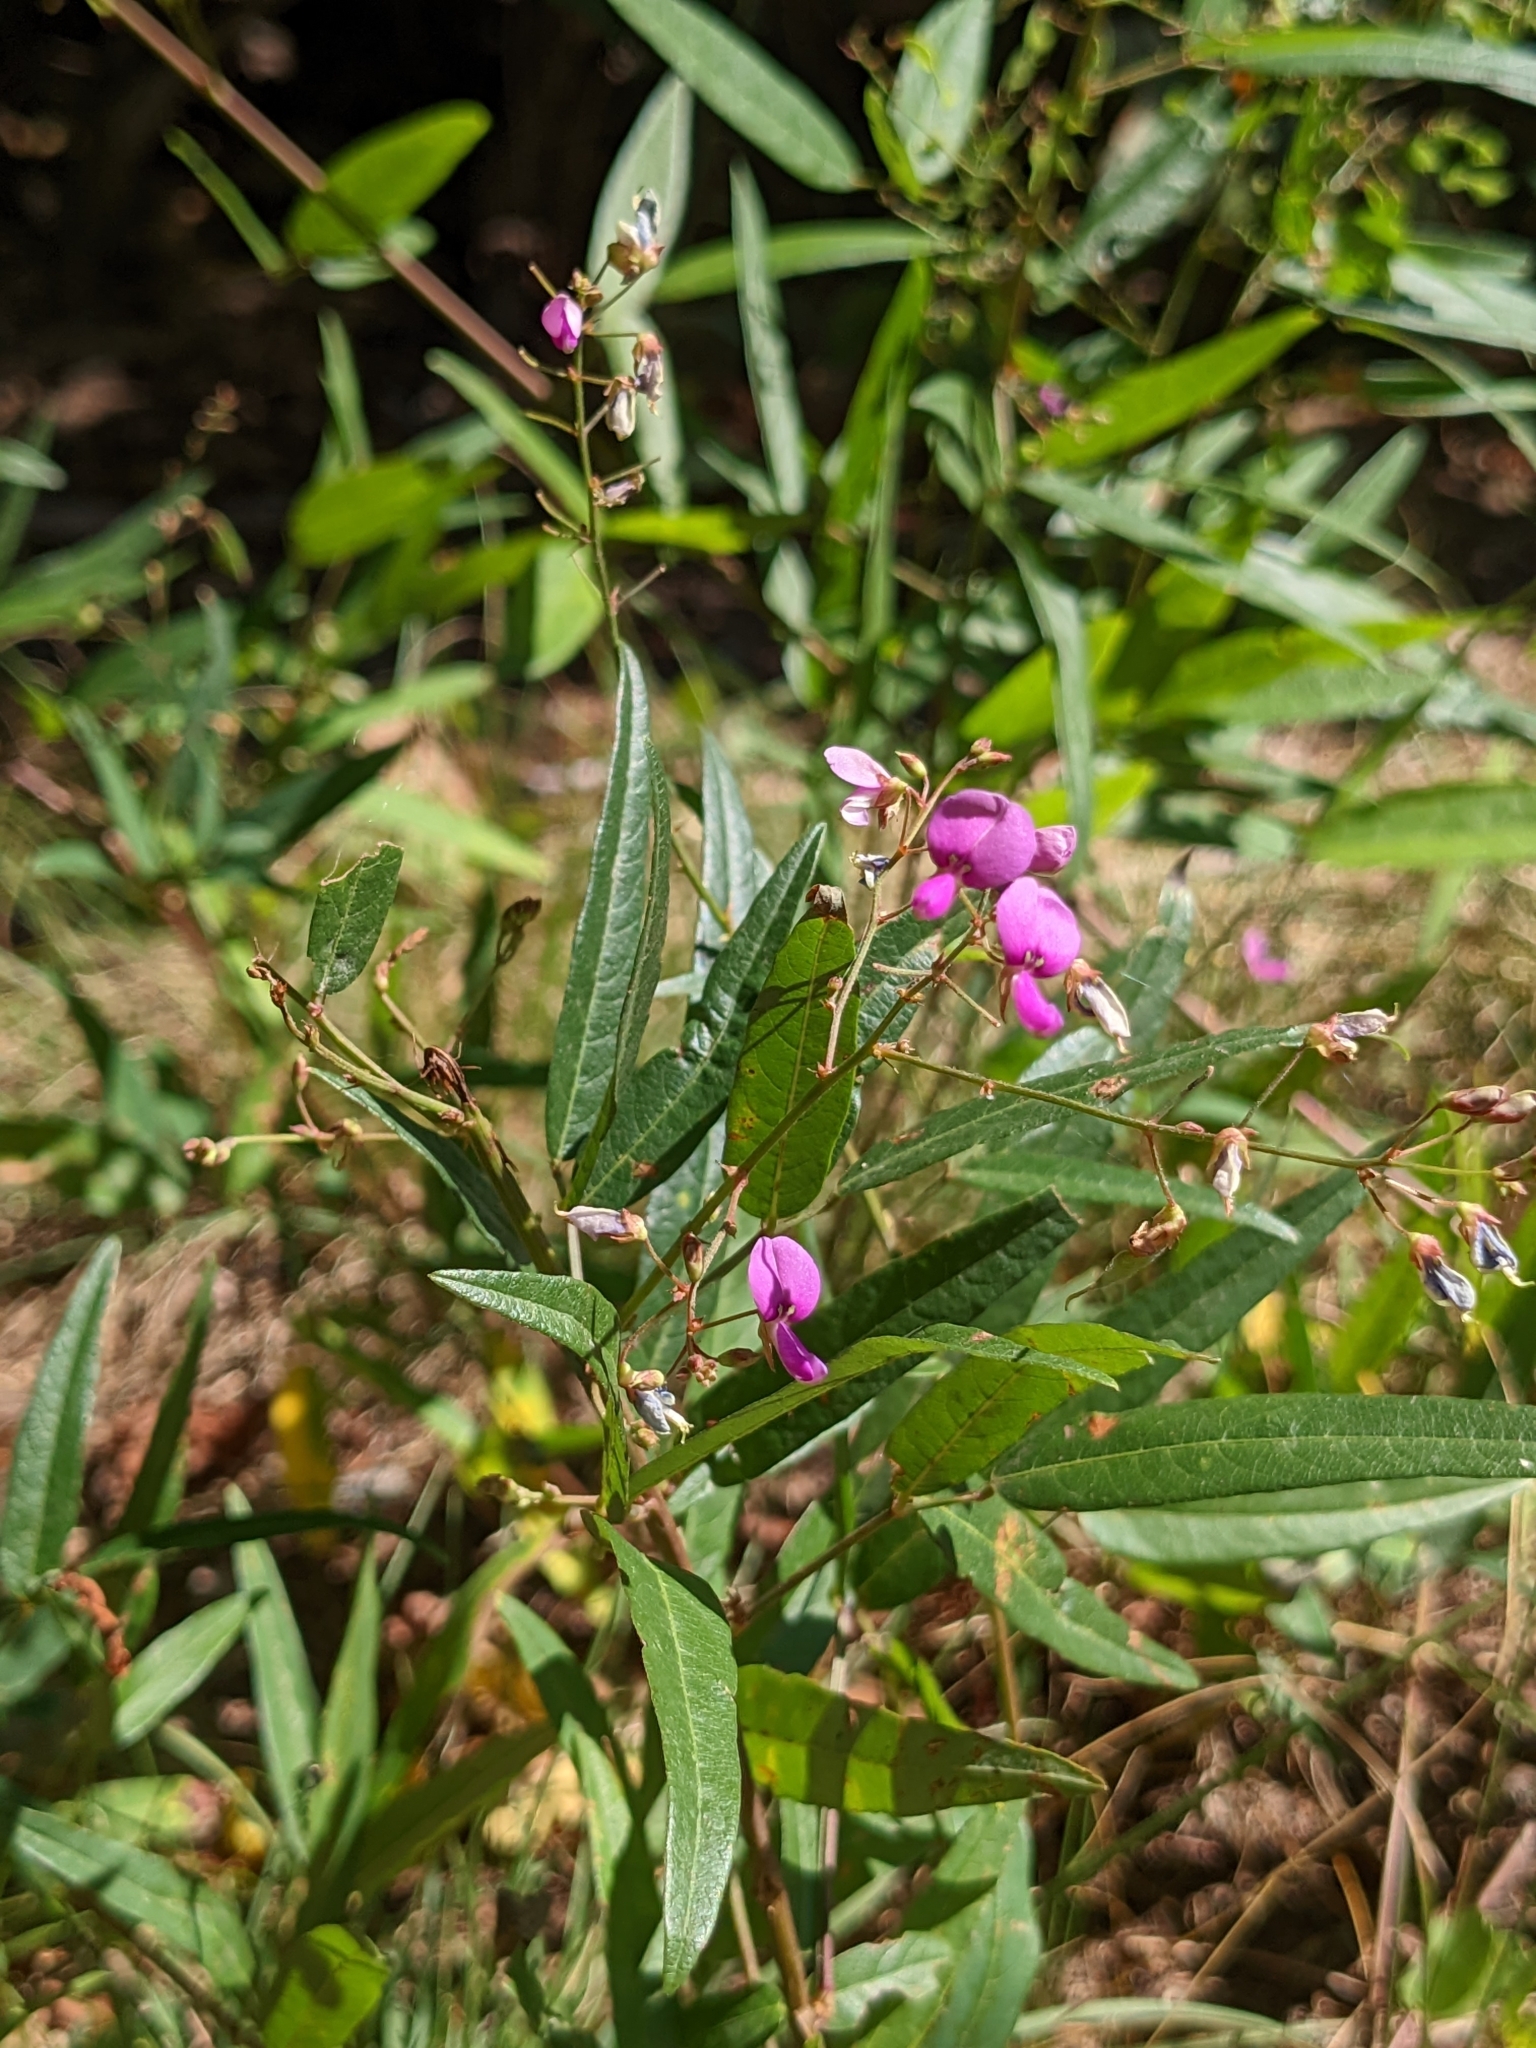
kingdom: Plantae
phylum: Tracheophyta
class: Magnoliopsida
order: Fabales
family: Fabaceae
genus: Desmodium
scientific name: Desmodium paniculatum
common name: Panicled tick-clover
